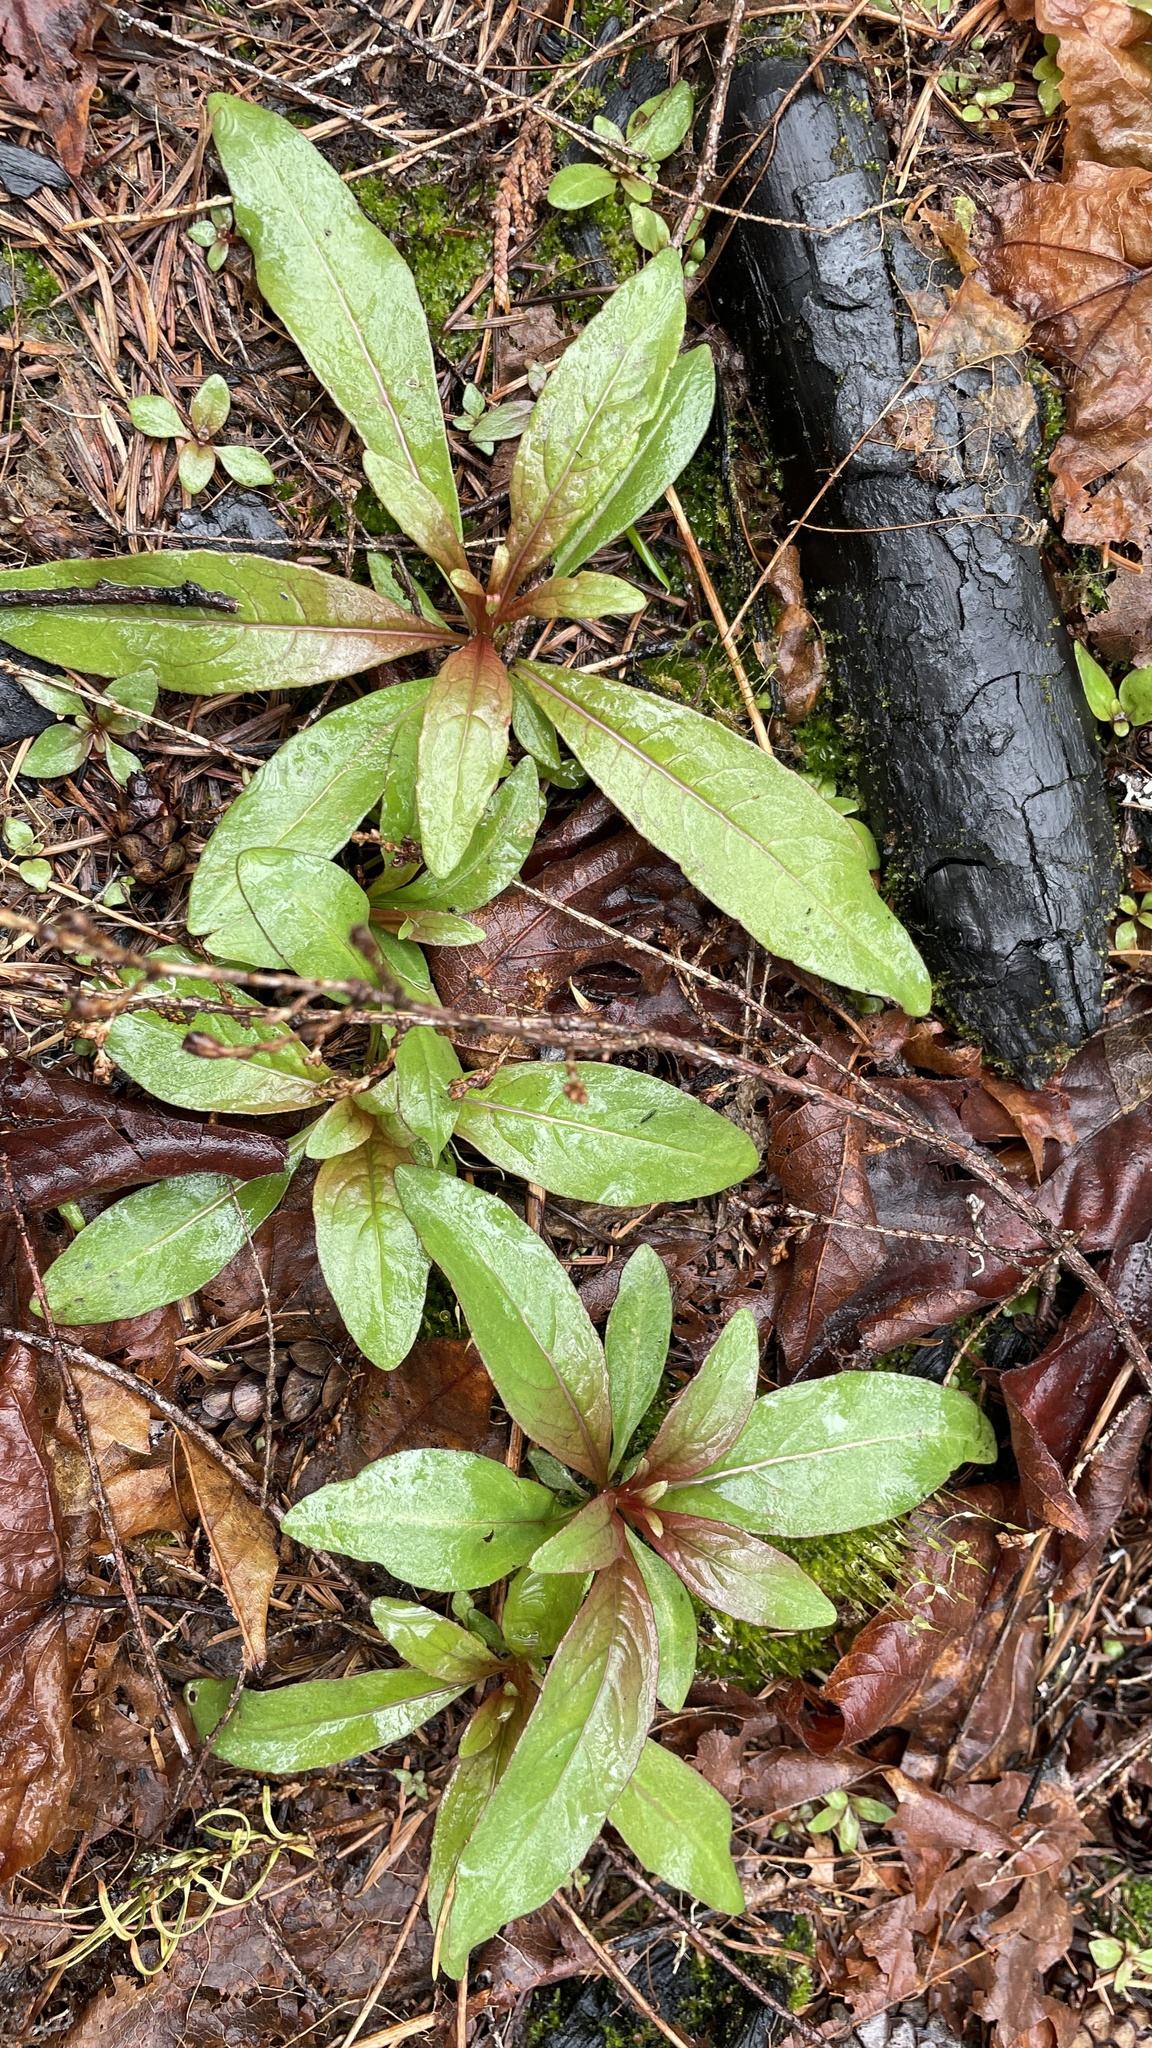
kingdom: Plantae
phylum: Tracheophyta
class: Magnoliopsida
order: Myrtales
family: Onagraceae
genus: Epilobium
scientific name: Epilobium ciliatum
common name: American willowherb
